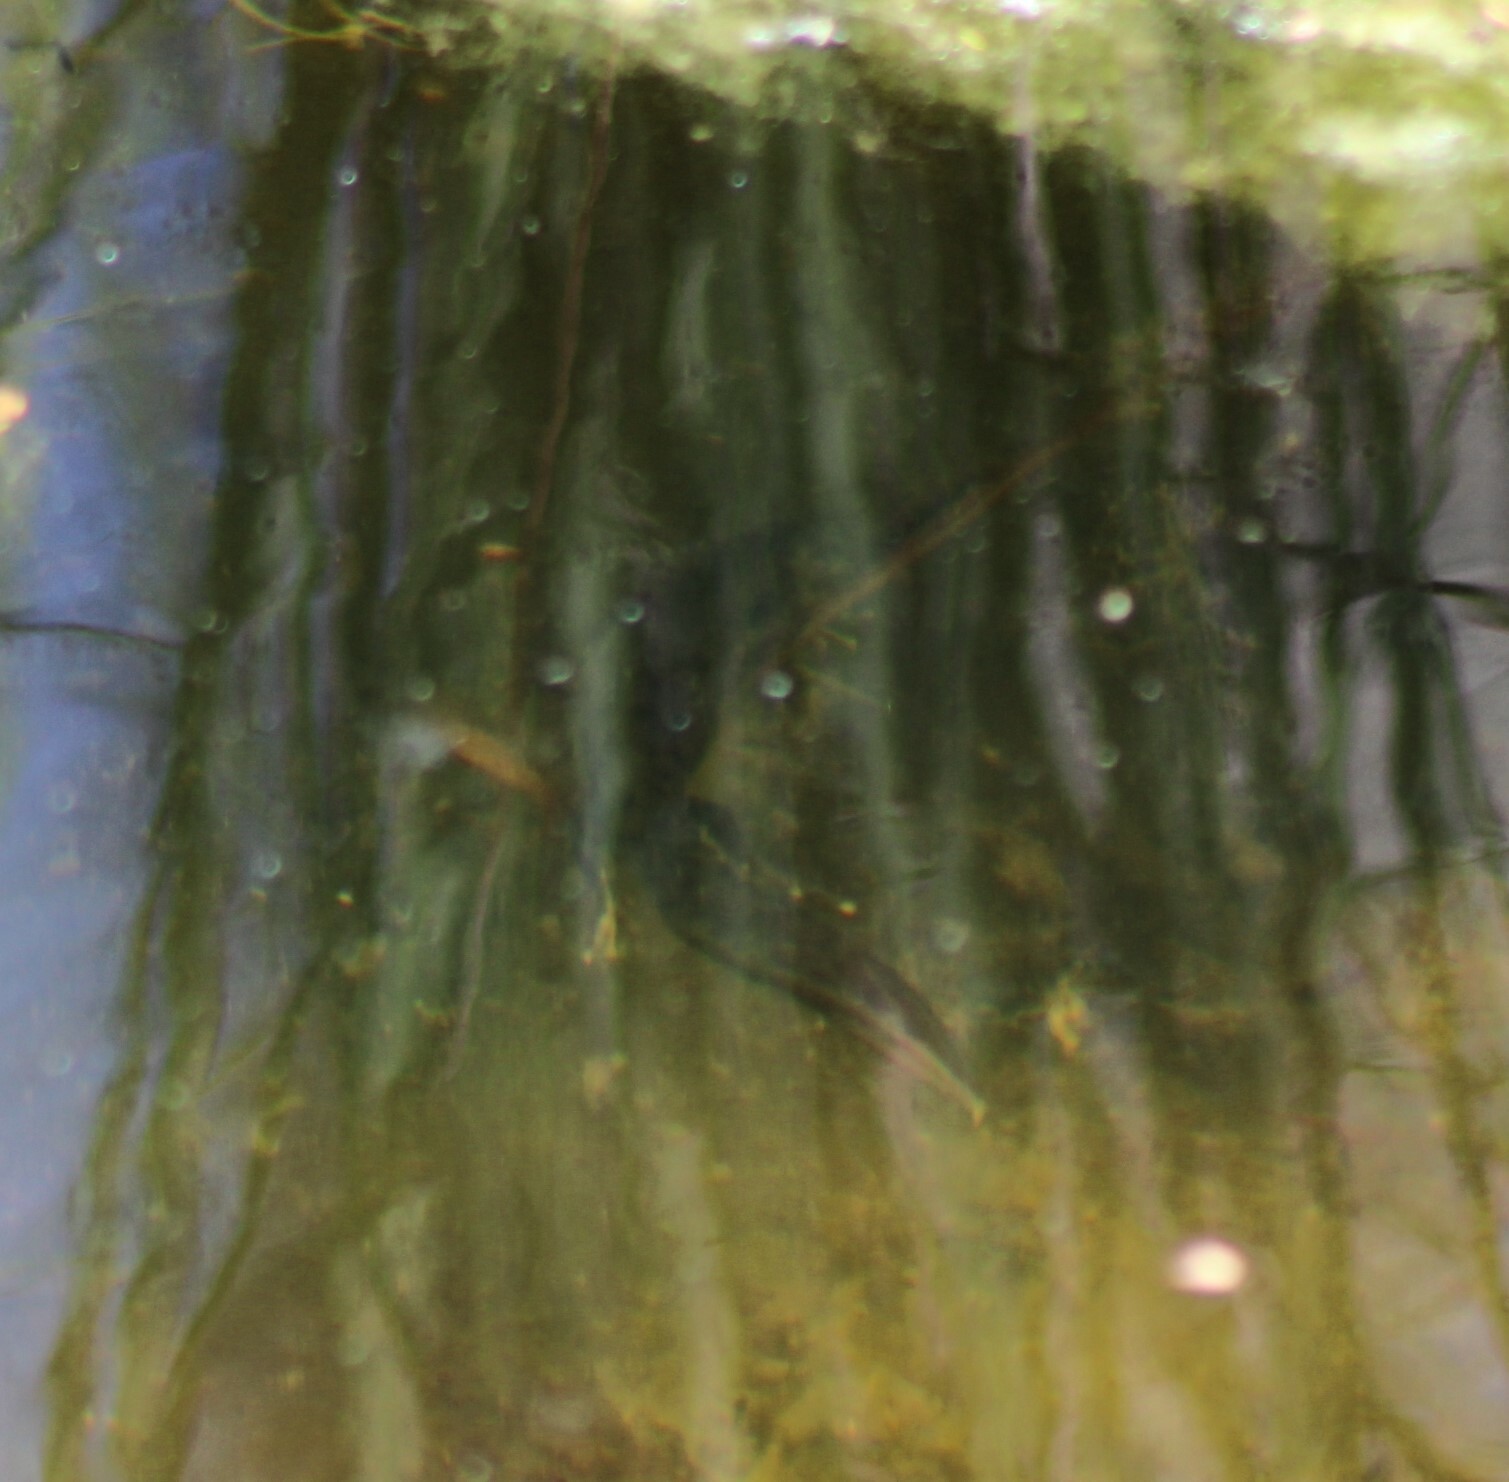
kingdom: Animalia
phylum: Chordata
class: Amphibia
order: Caudata
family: Salamandridae
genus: Triturus
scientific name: Triturus cristatus
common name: Crested newt
